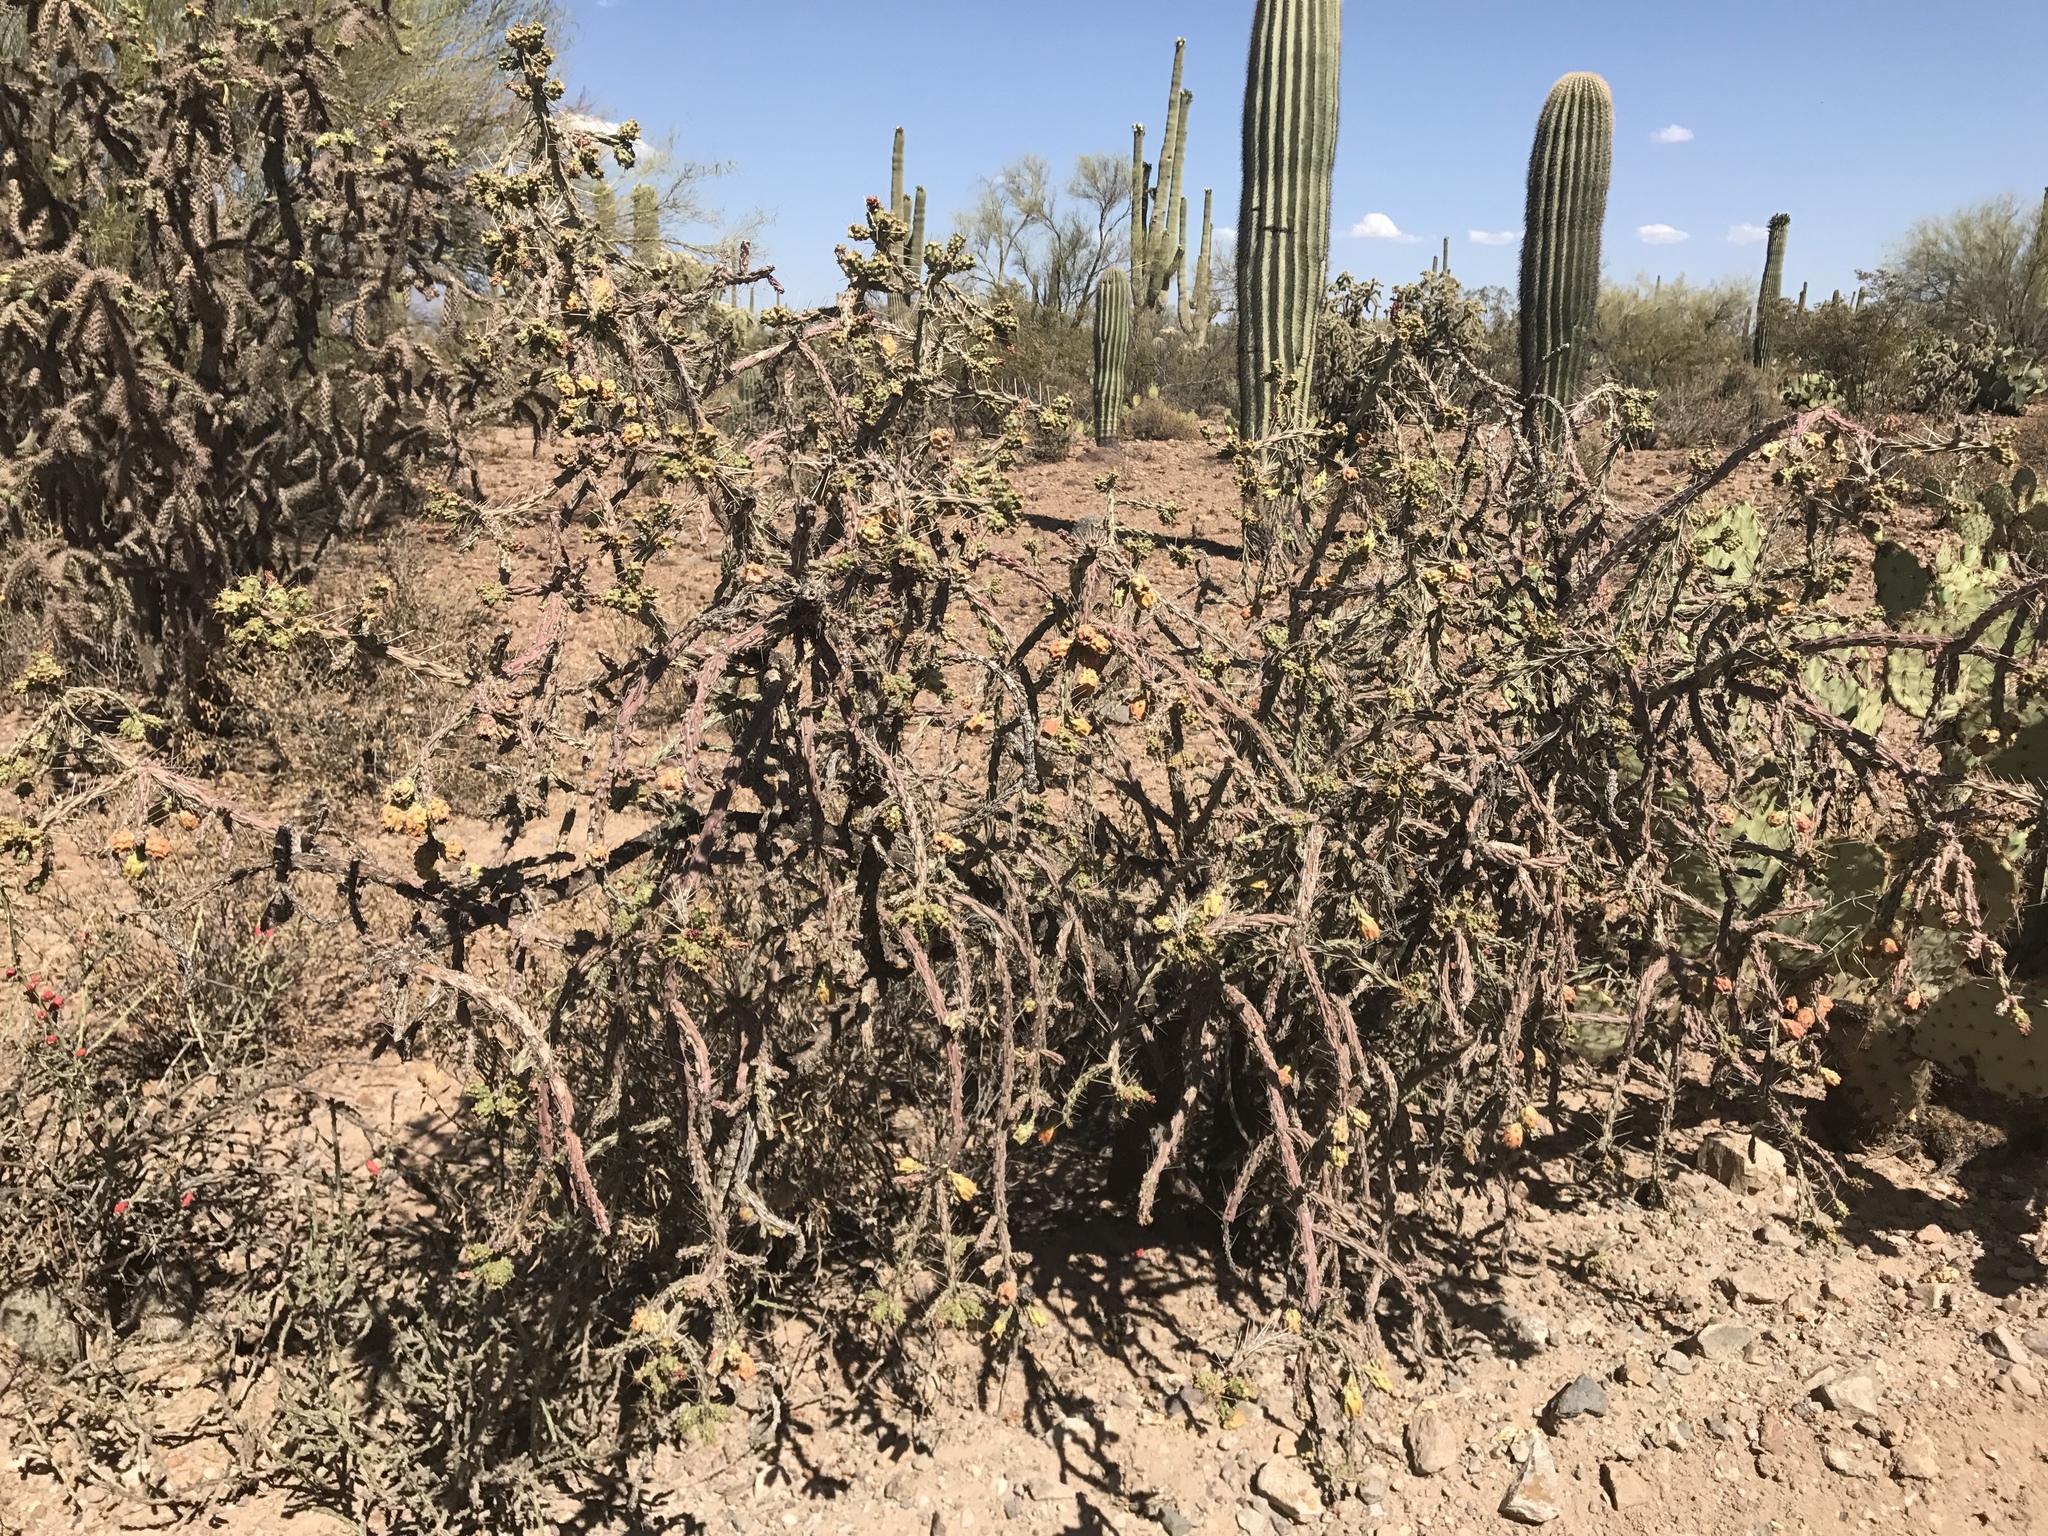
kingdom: Plantae
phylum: Tracheophyta
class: Magnoliopsida
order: Caryophyllales
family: Cactaceae
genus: Cylindropuntia
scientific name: Cylindropuntia thurberi
